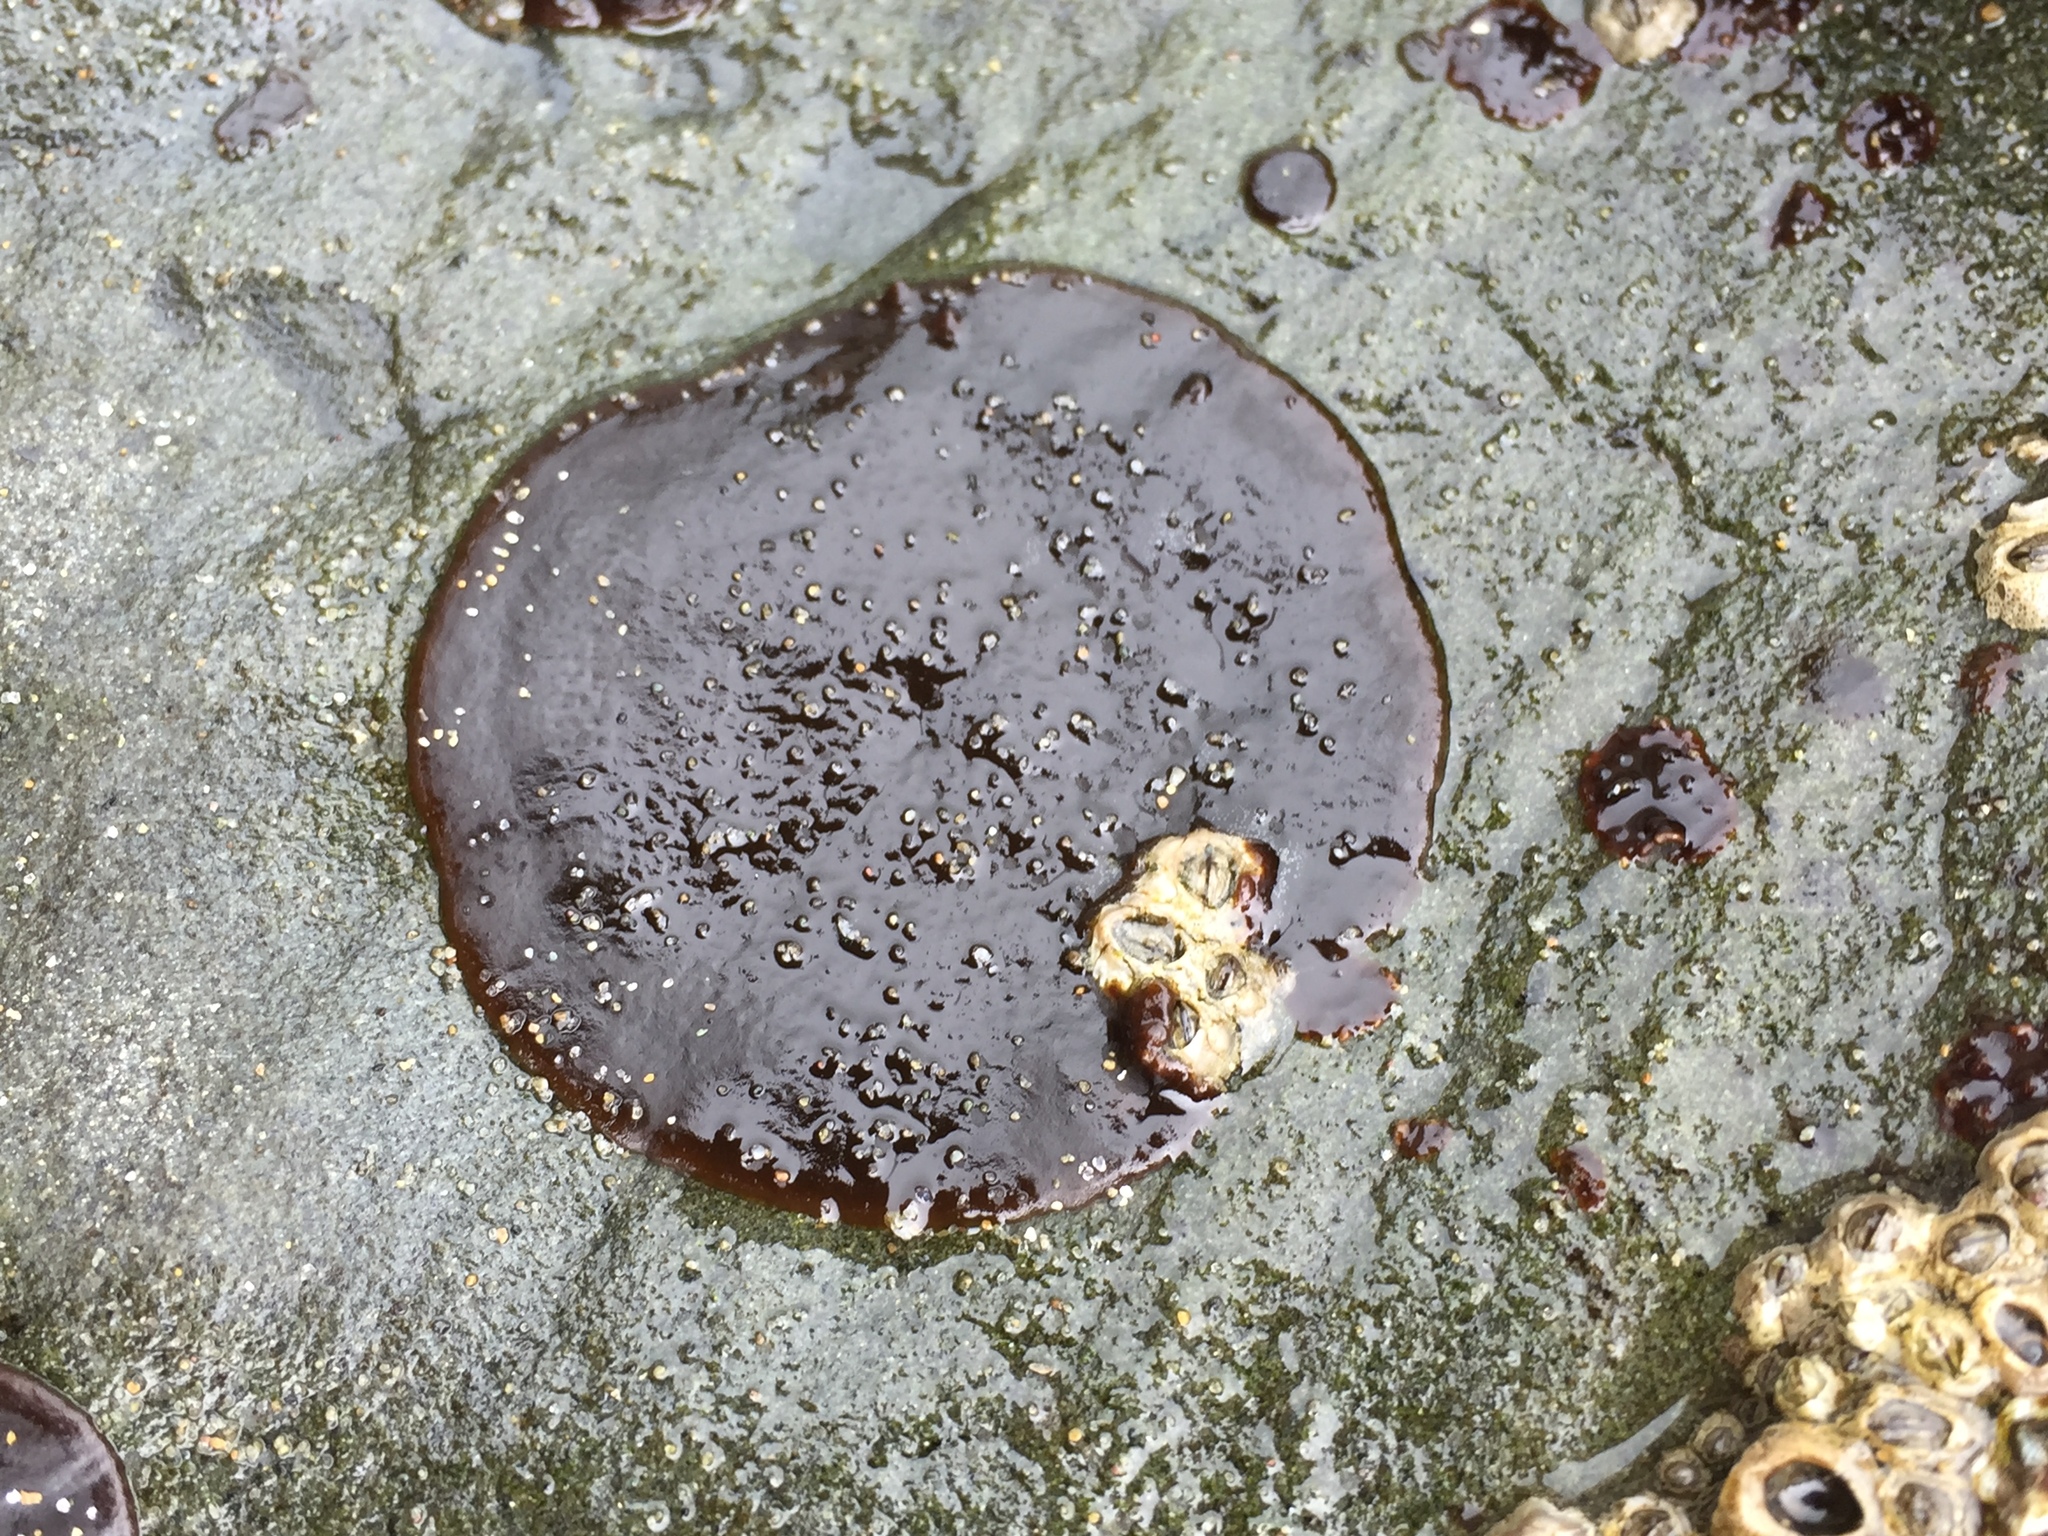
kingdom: Plantae
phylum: Rhodophyta
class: Florideophyceae
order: Gigartinales
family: Phyllophoraceae
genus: Mastocarpus
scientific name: Mastocarpus papillatus
